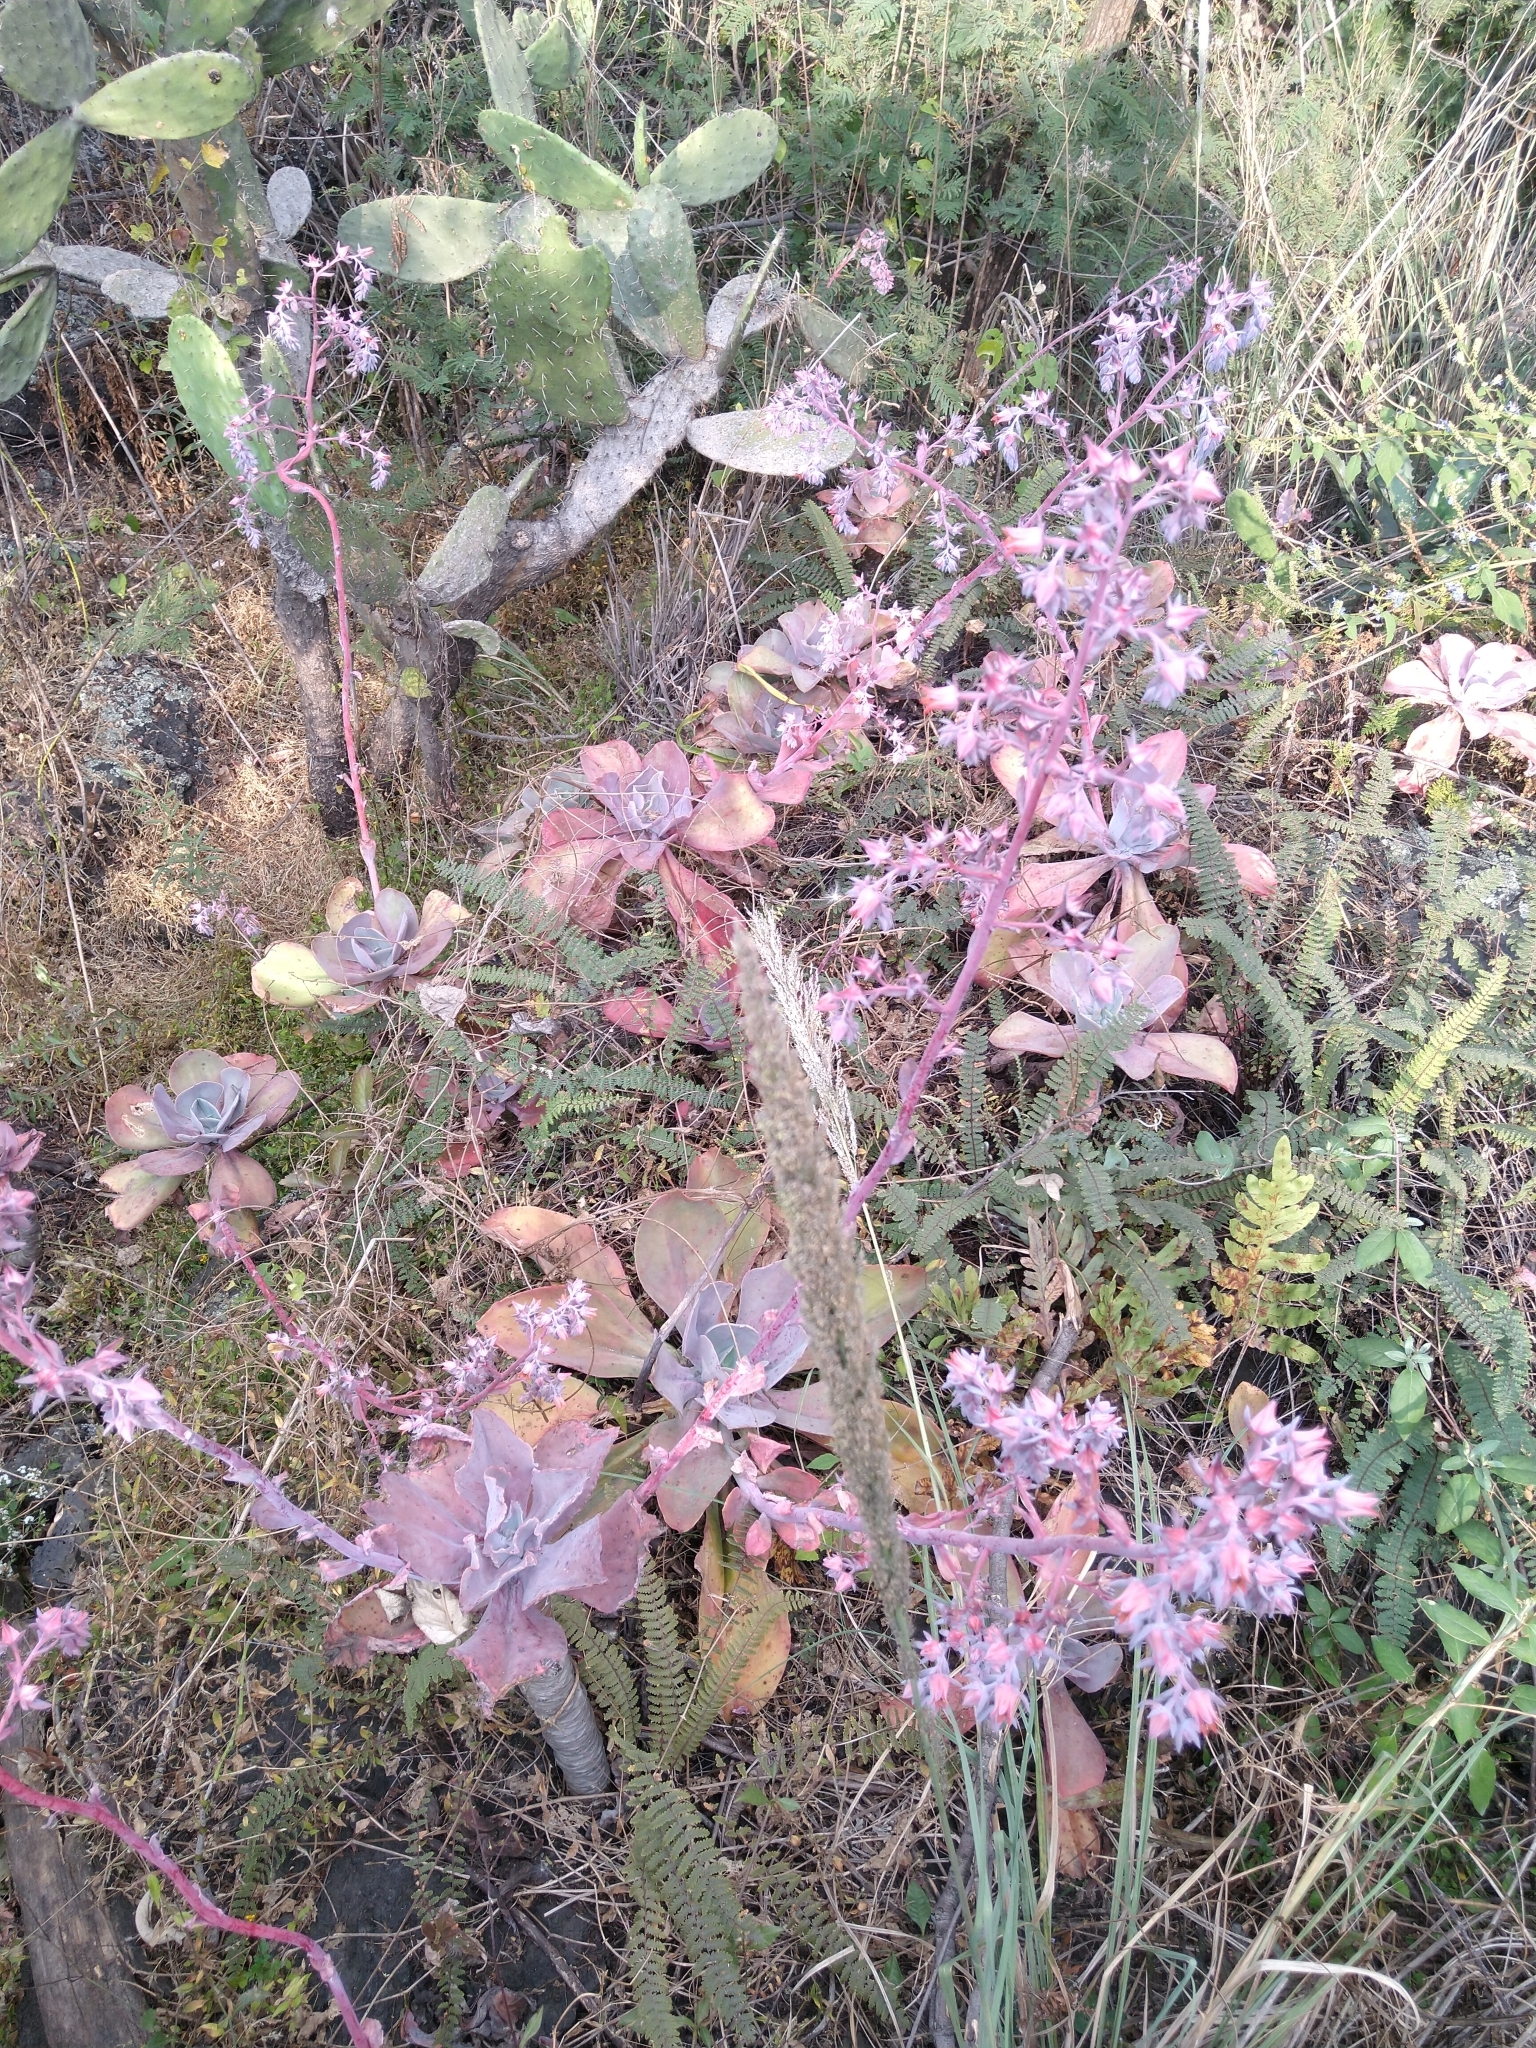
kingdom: Plantae
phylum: Tracheophyta
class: Magnoliopsida
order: Saxifragales
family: Crassulaceae
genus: Echeveria
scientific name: Echeveria gibbiflora
